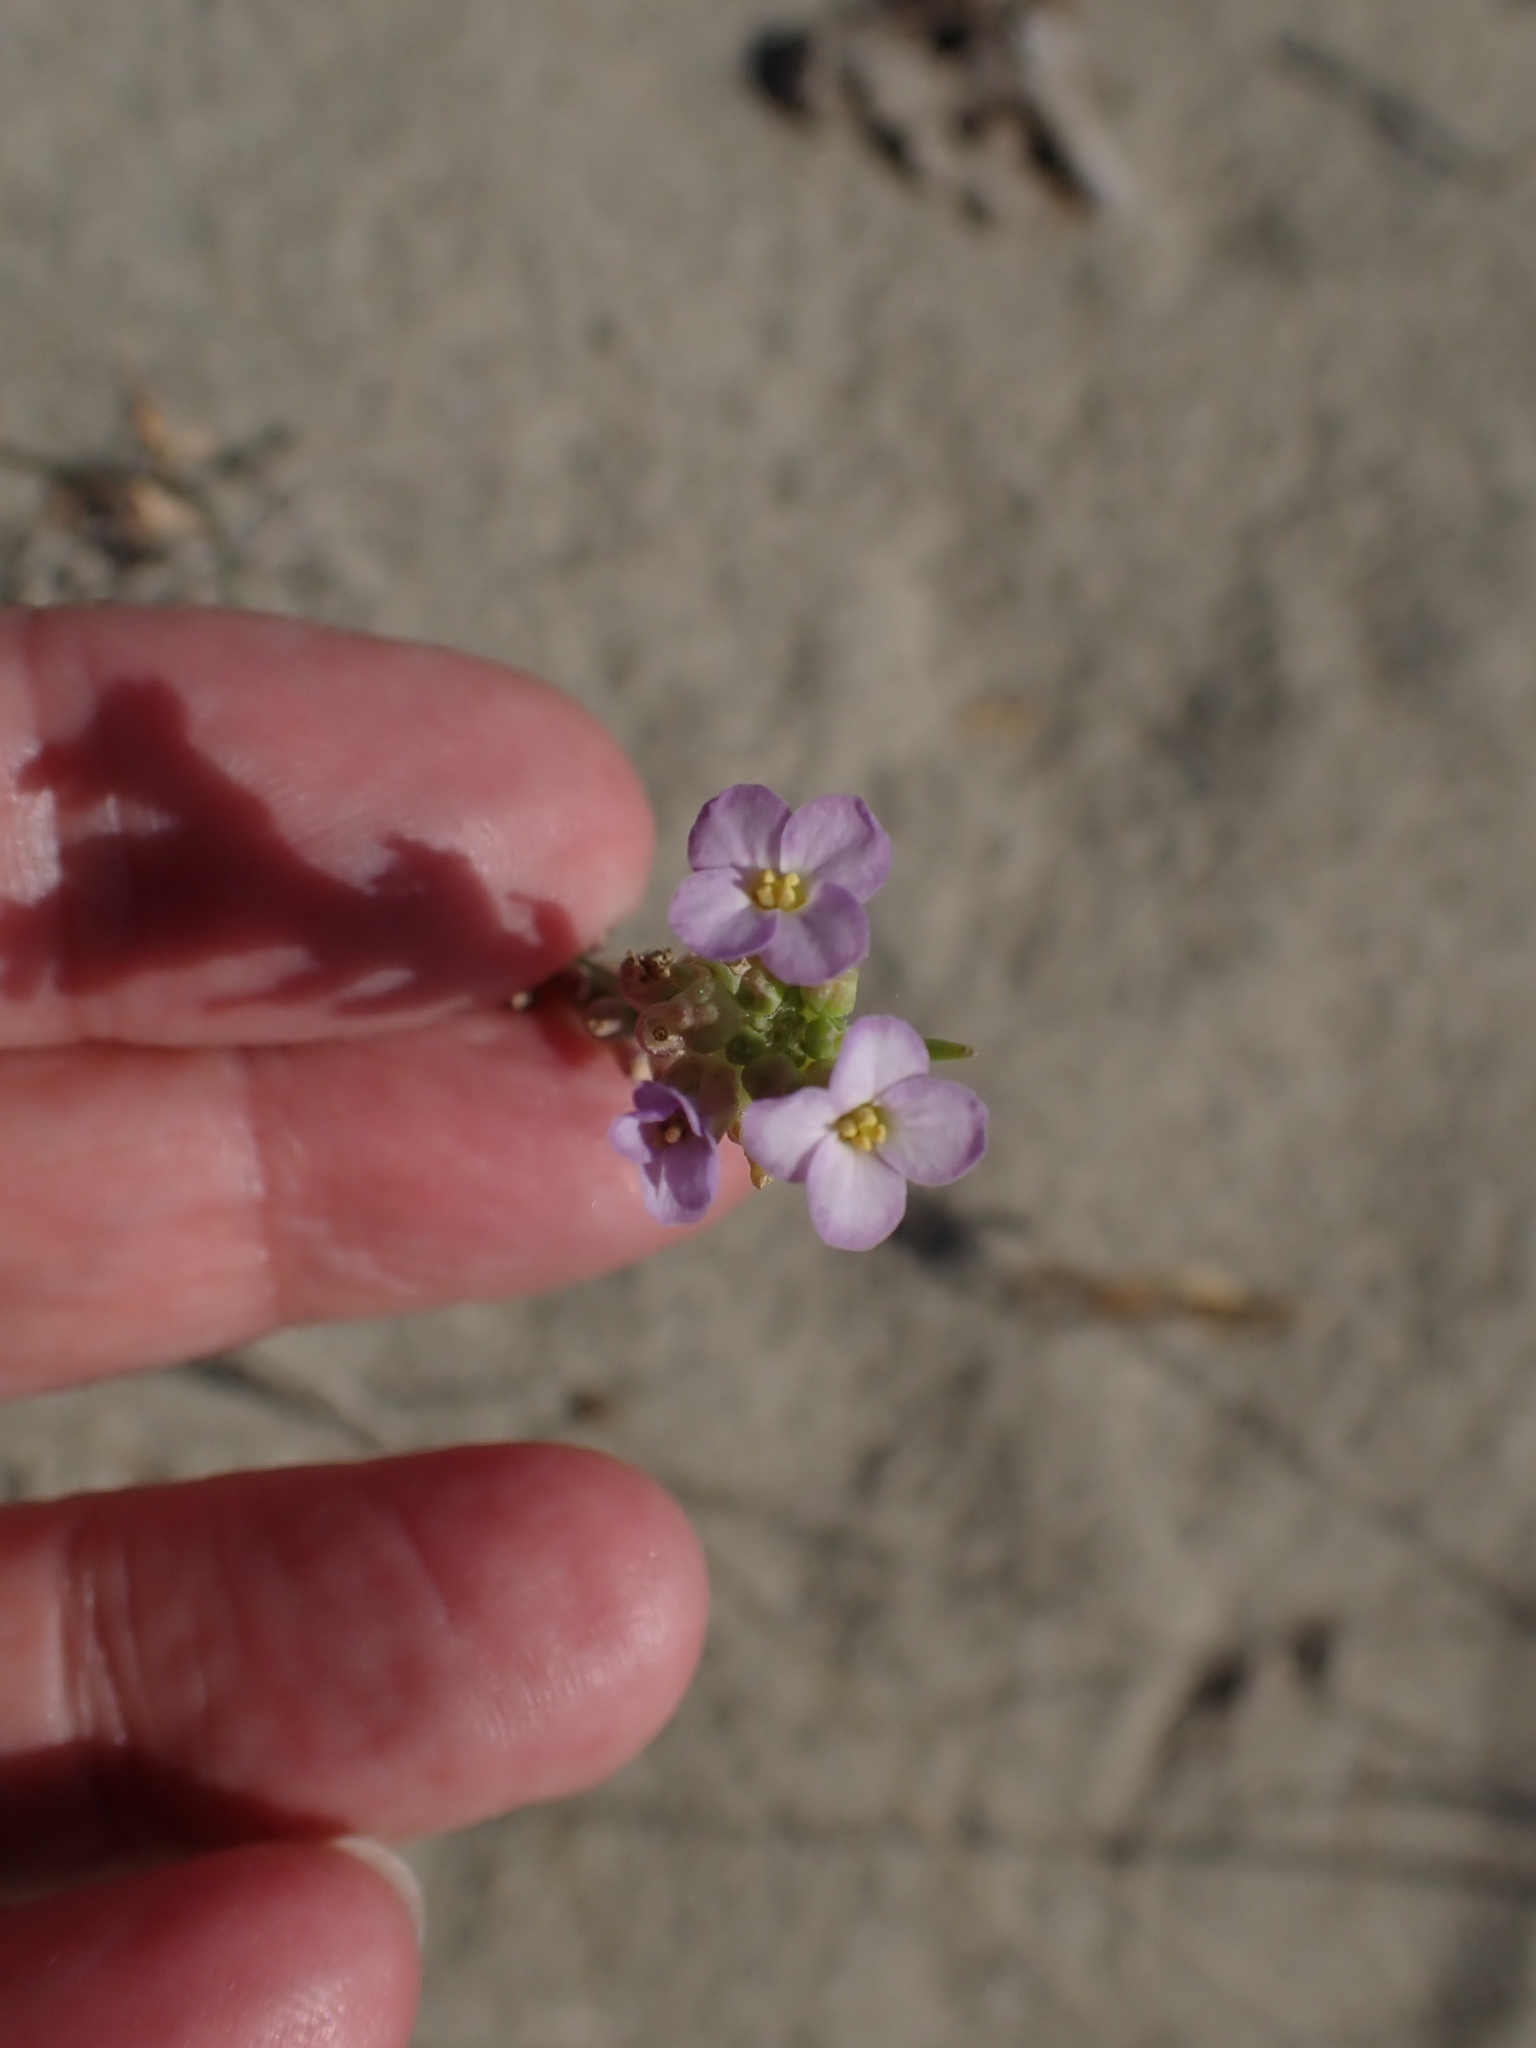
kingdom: Plantae
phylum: Tracheophyta
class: Magnoliopsida
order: Brassicales
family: Brassicaceae
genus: Cakile
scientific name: Cakile maritima
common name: Sea rocket
